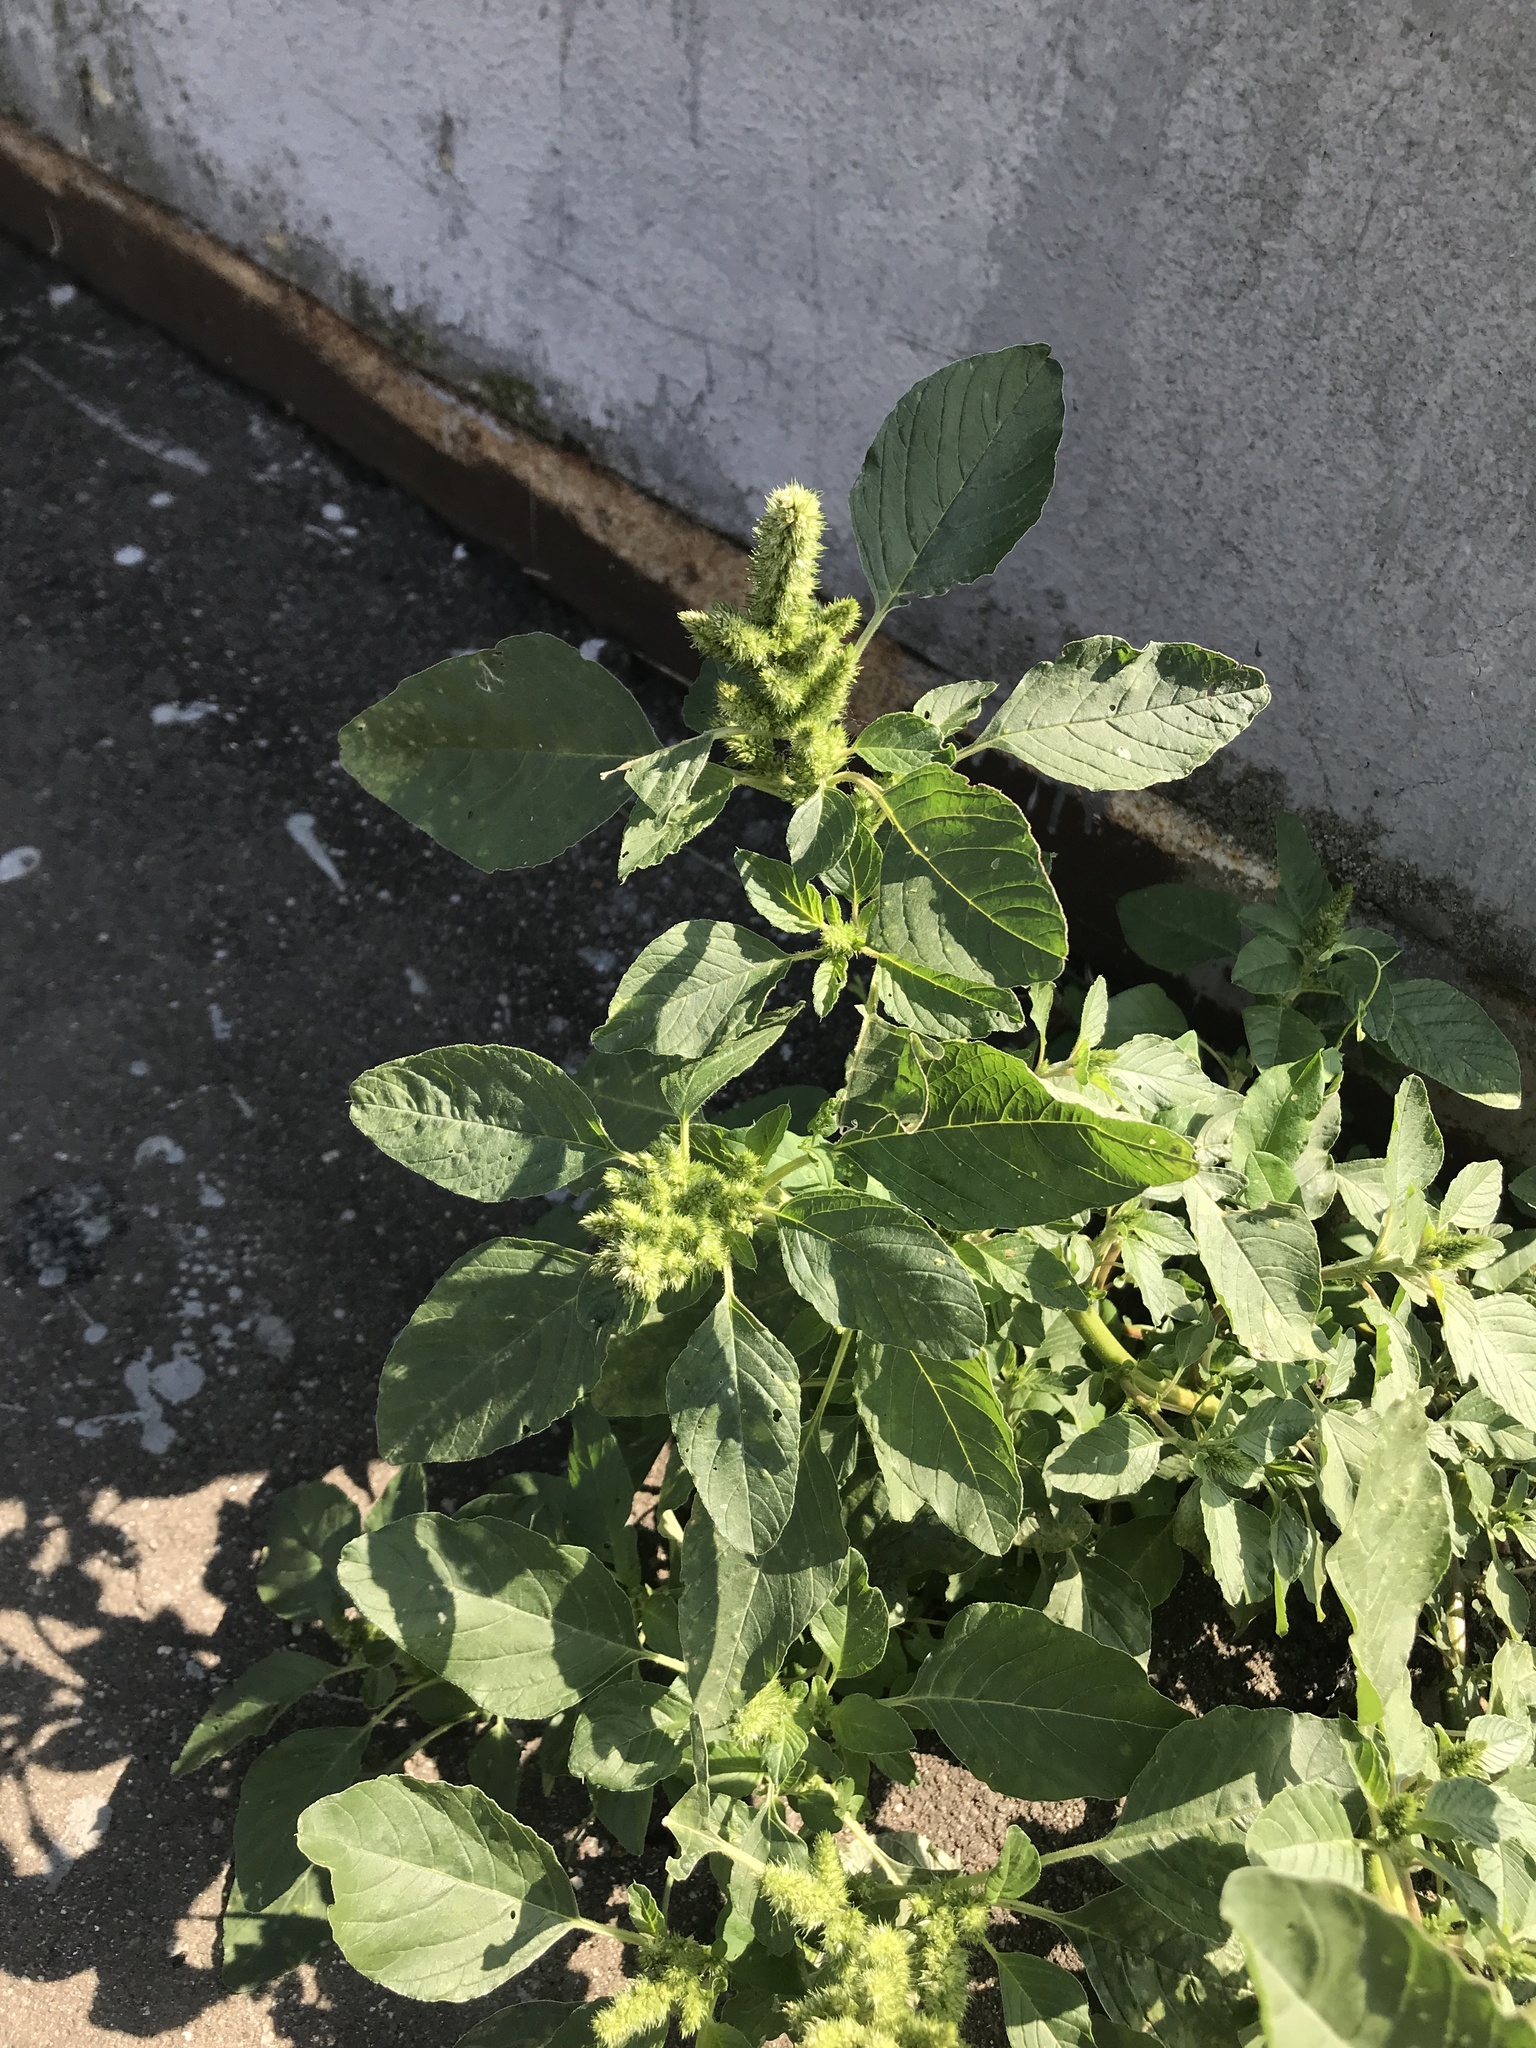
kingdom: Plantae
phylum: Tracheophyta
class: Magnoliopsida
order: Caryophyllales
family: Amaranthaceae
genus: Amaranthus
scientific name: Amaranthus retroflexus
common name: Redroot amaranth
